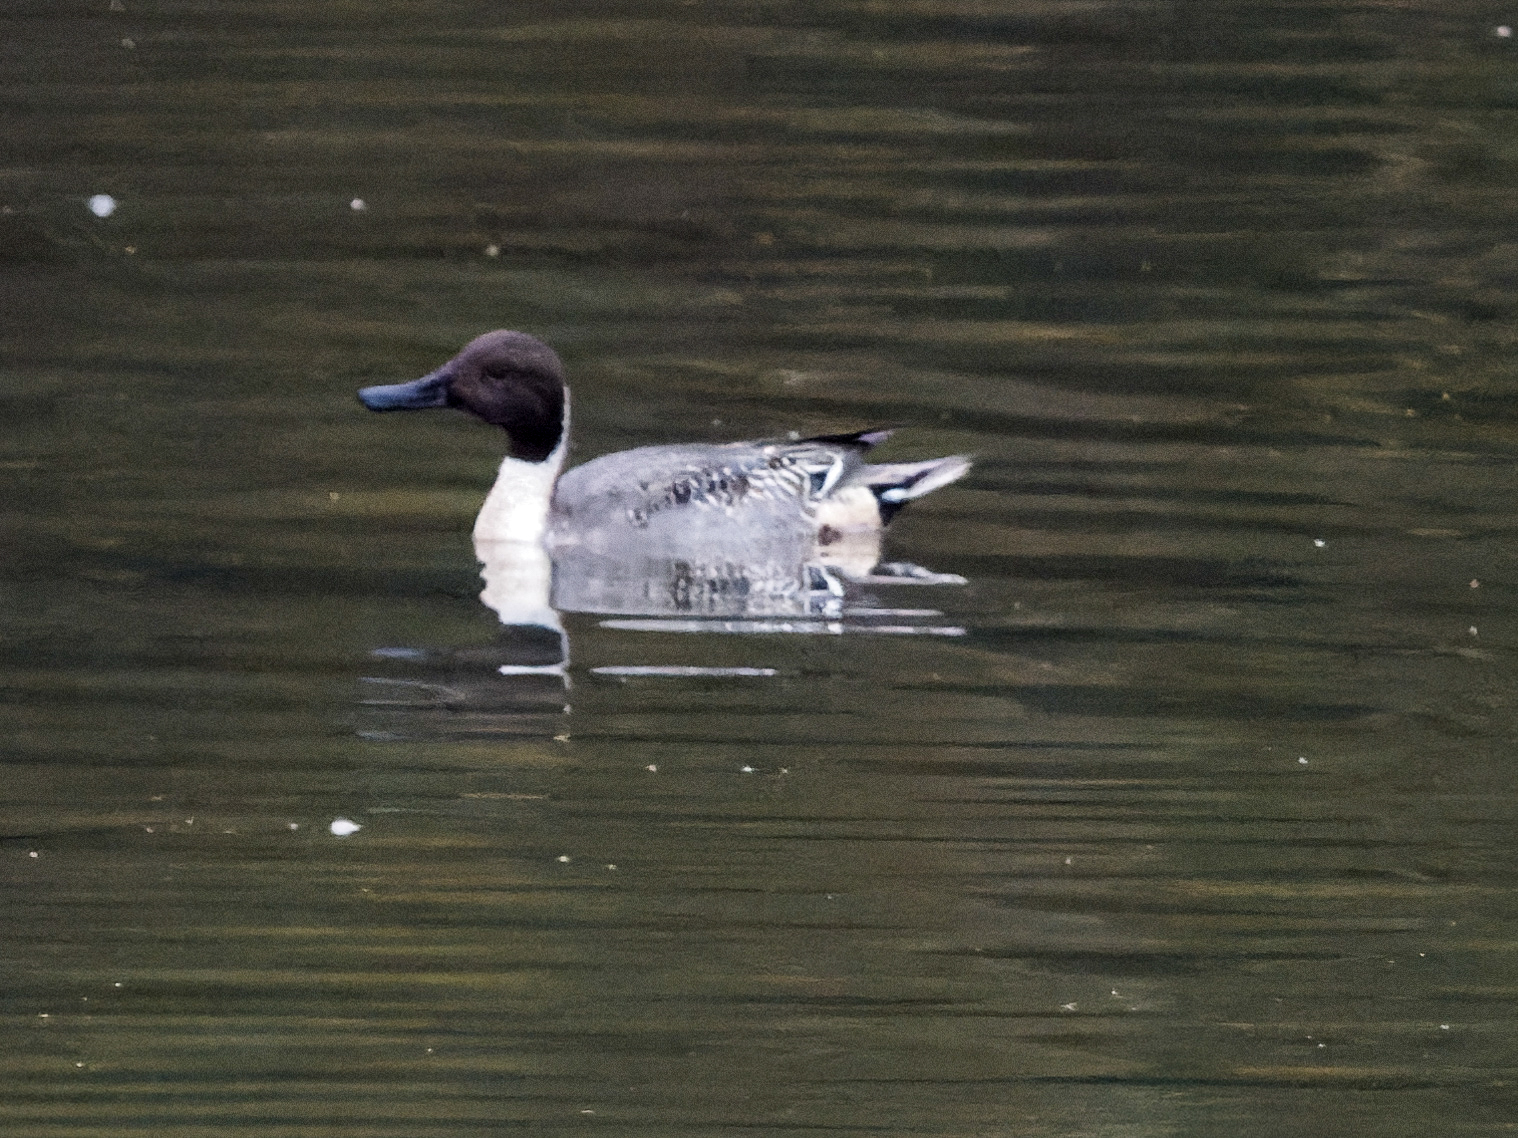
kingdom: Animalia
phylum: Chordata
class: Aves
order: Anseriformes
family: Anatidae
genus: Anas
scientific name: Anas acuta
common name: Northern pintail
